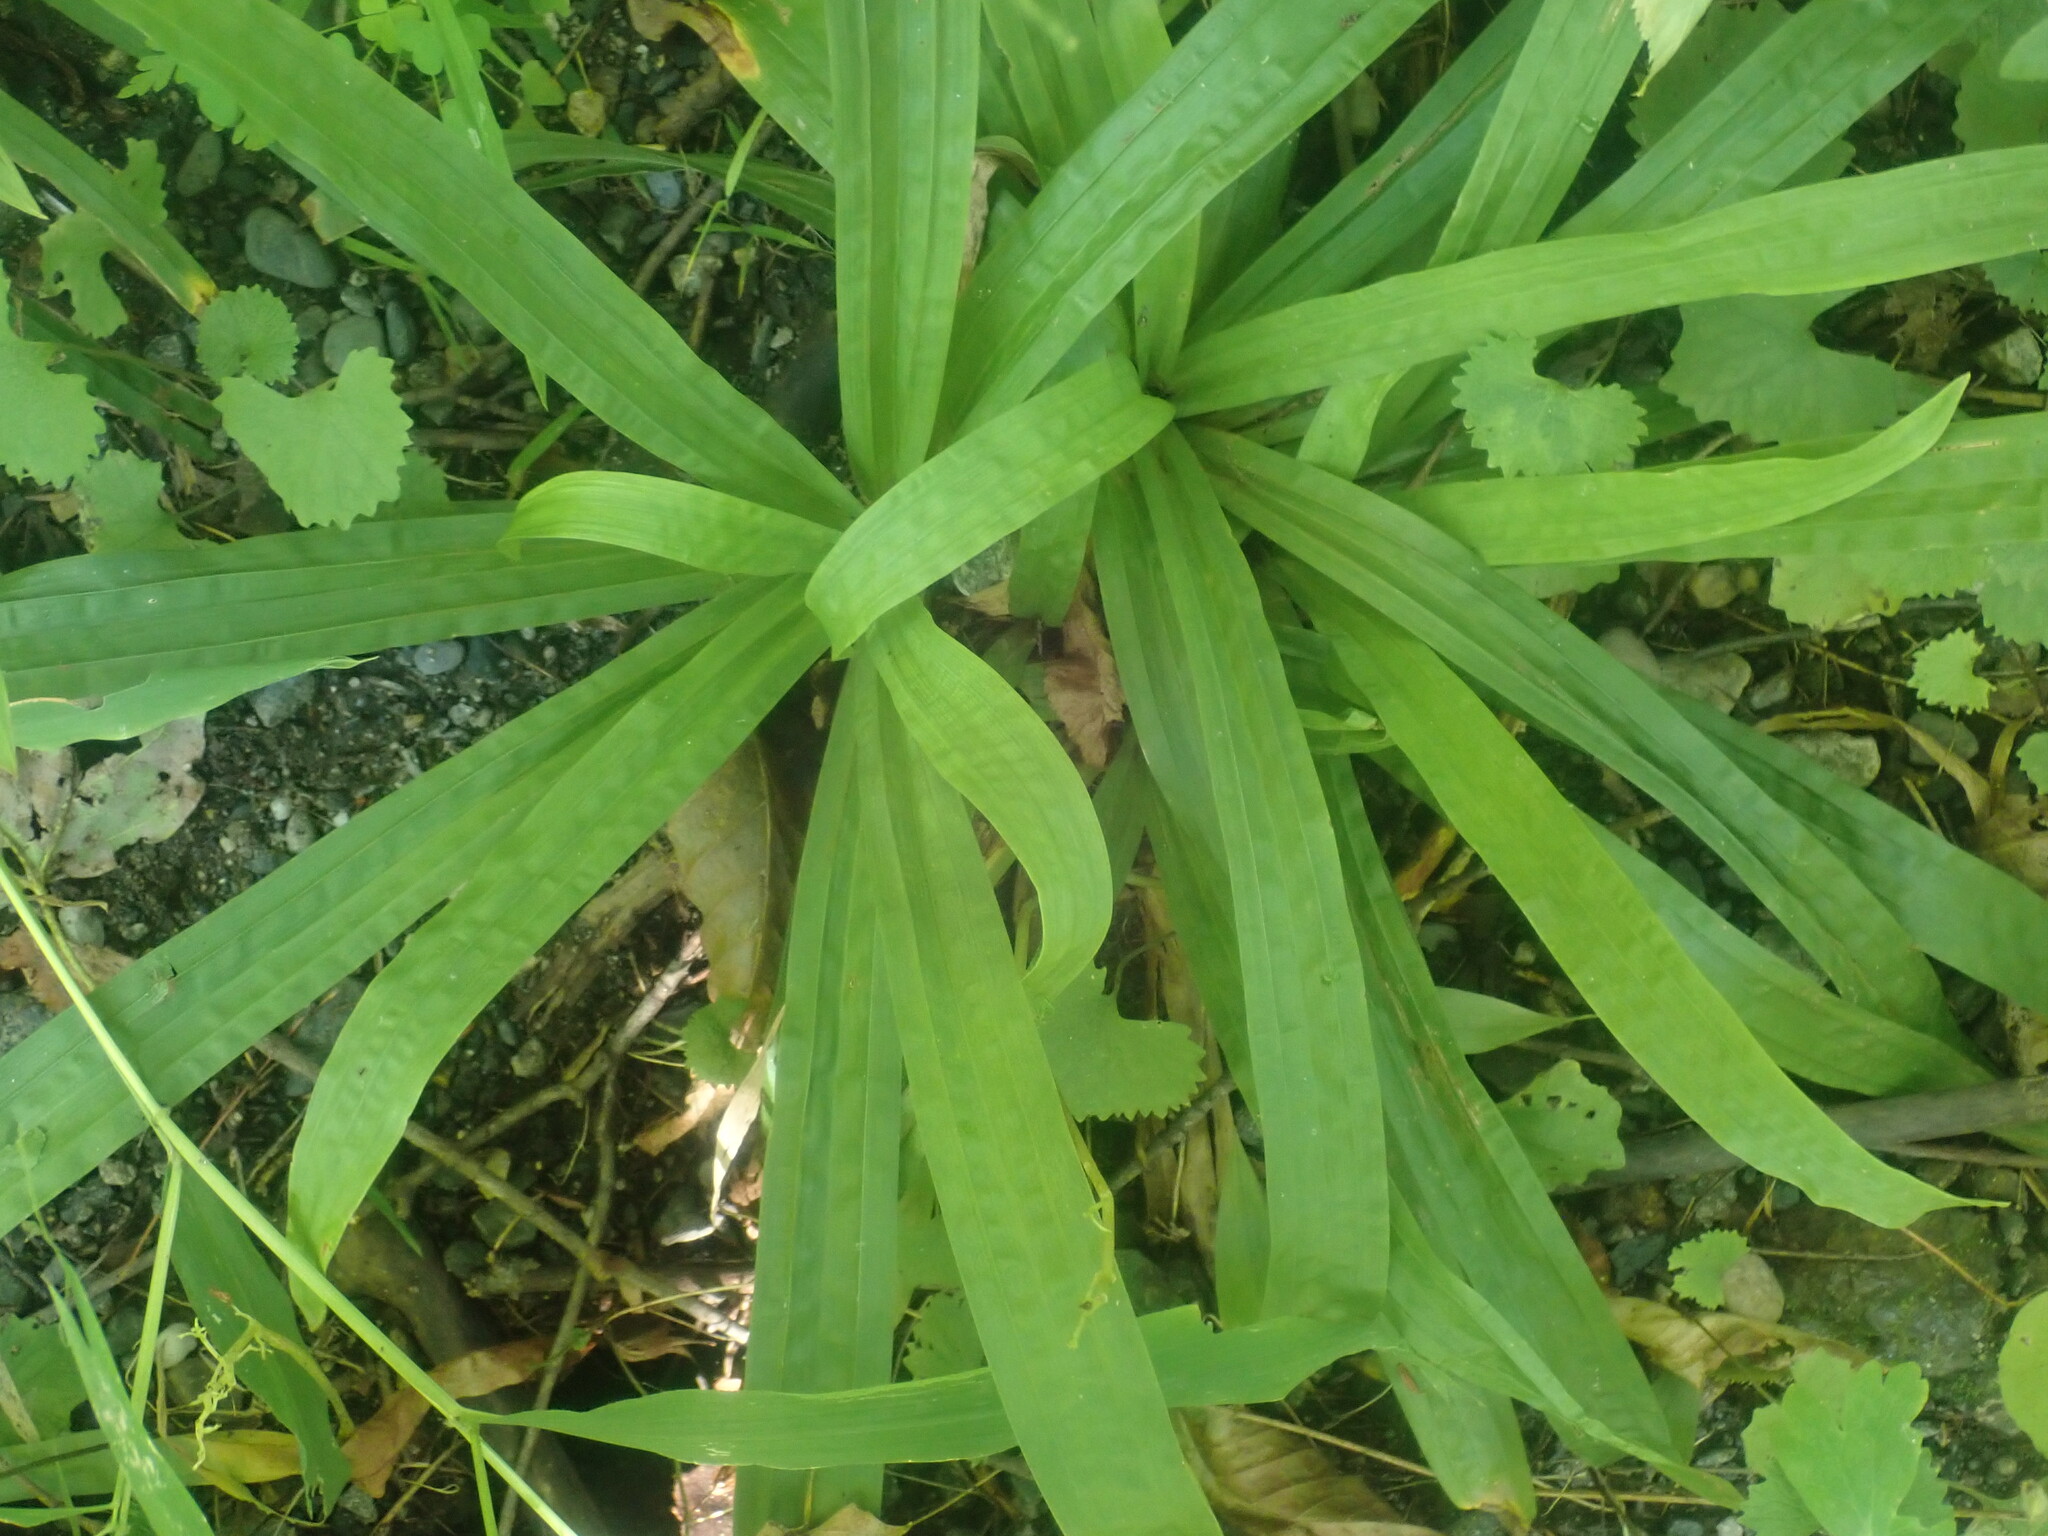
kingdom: Plantae
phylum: Tracheophyta
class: Liliopsida
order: Poales
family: Cyperaceae
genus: Carex
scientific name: Carex plantaginea
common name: Plantain-leaved sedge
